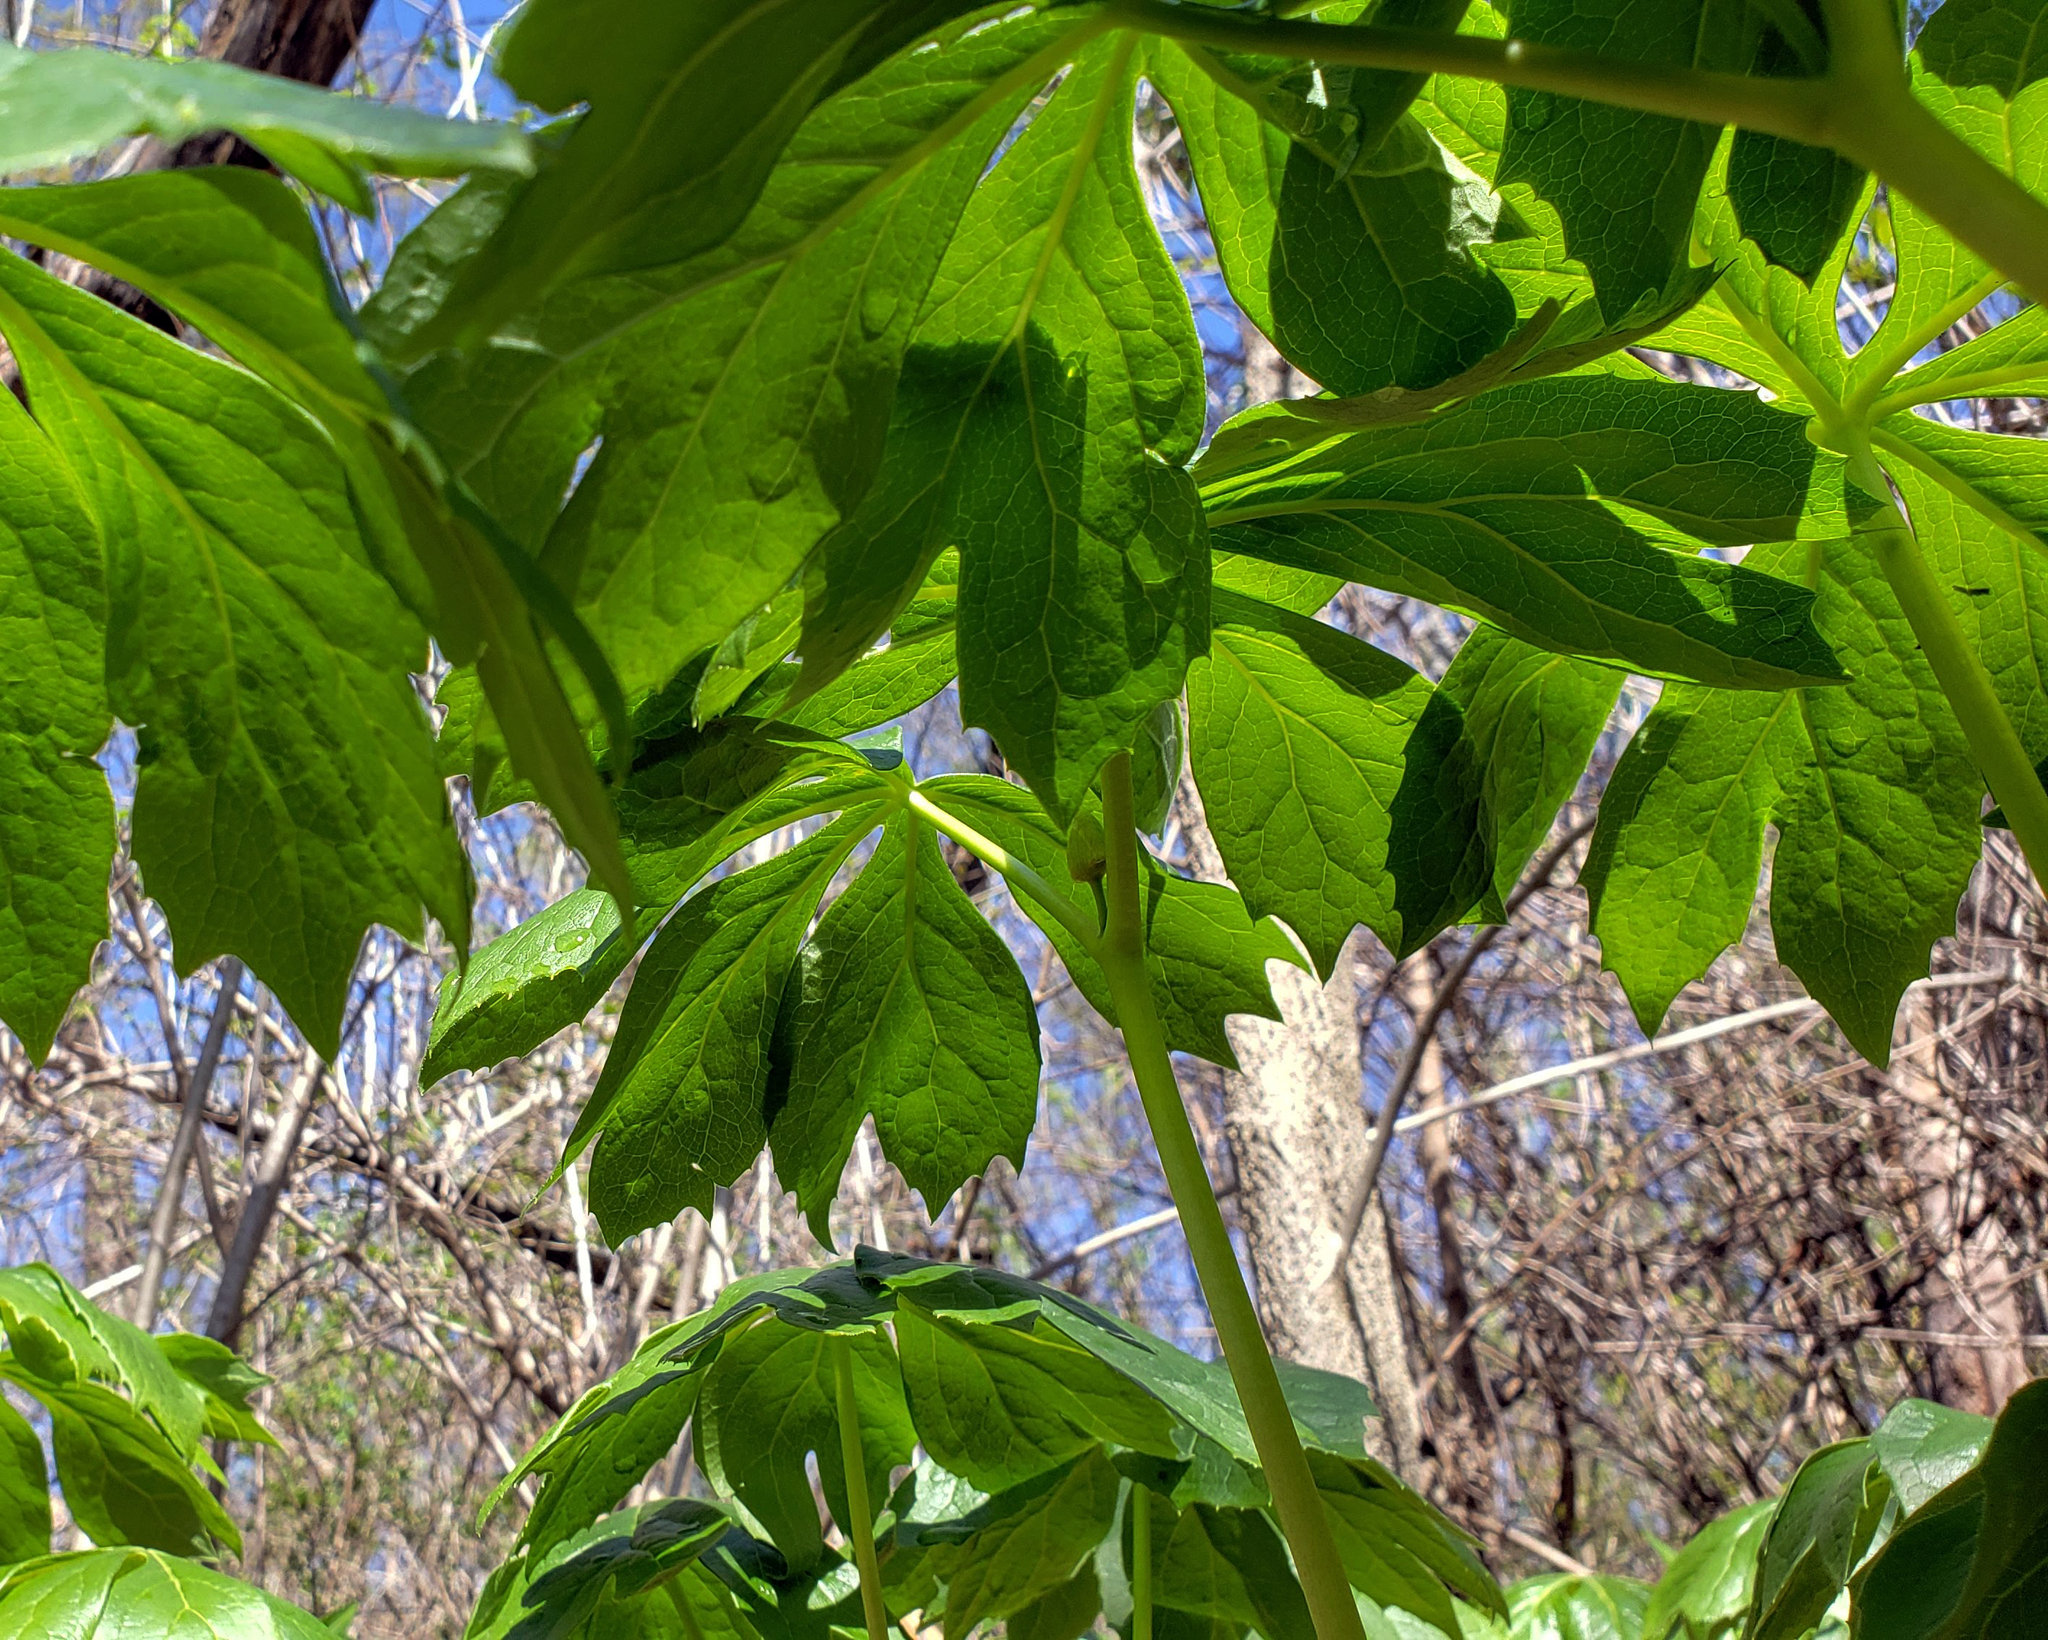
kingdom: Plantae
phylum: Tracheophyta
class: Magnoliopsida
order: Ranunculales
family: Berberidaceae
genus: Podophyllum
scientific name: Podophyllum peltatum
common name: Wild mandrake
